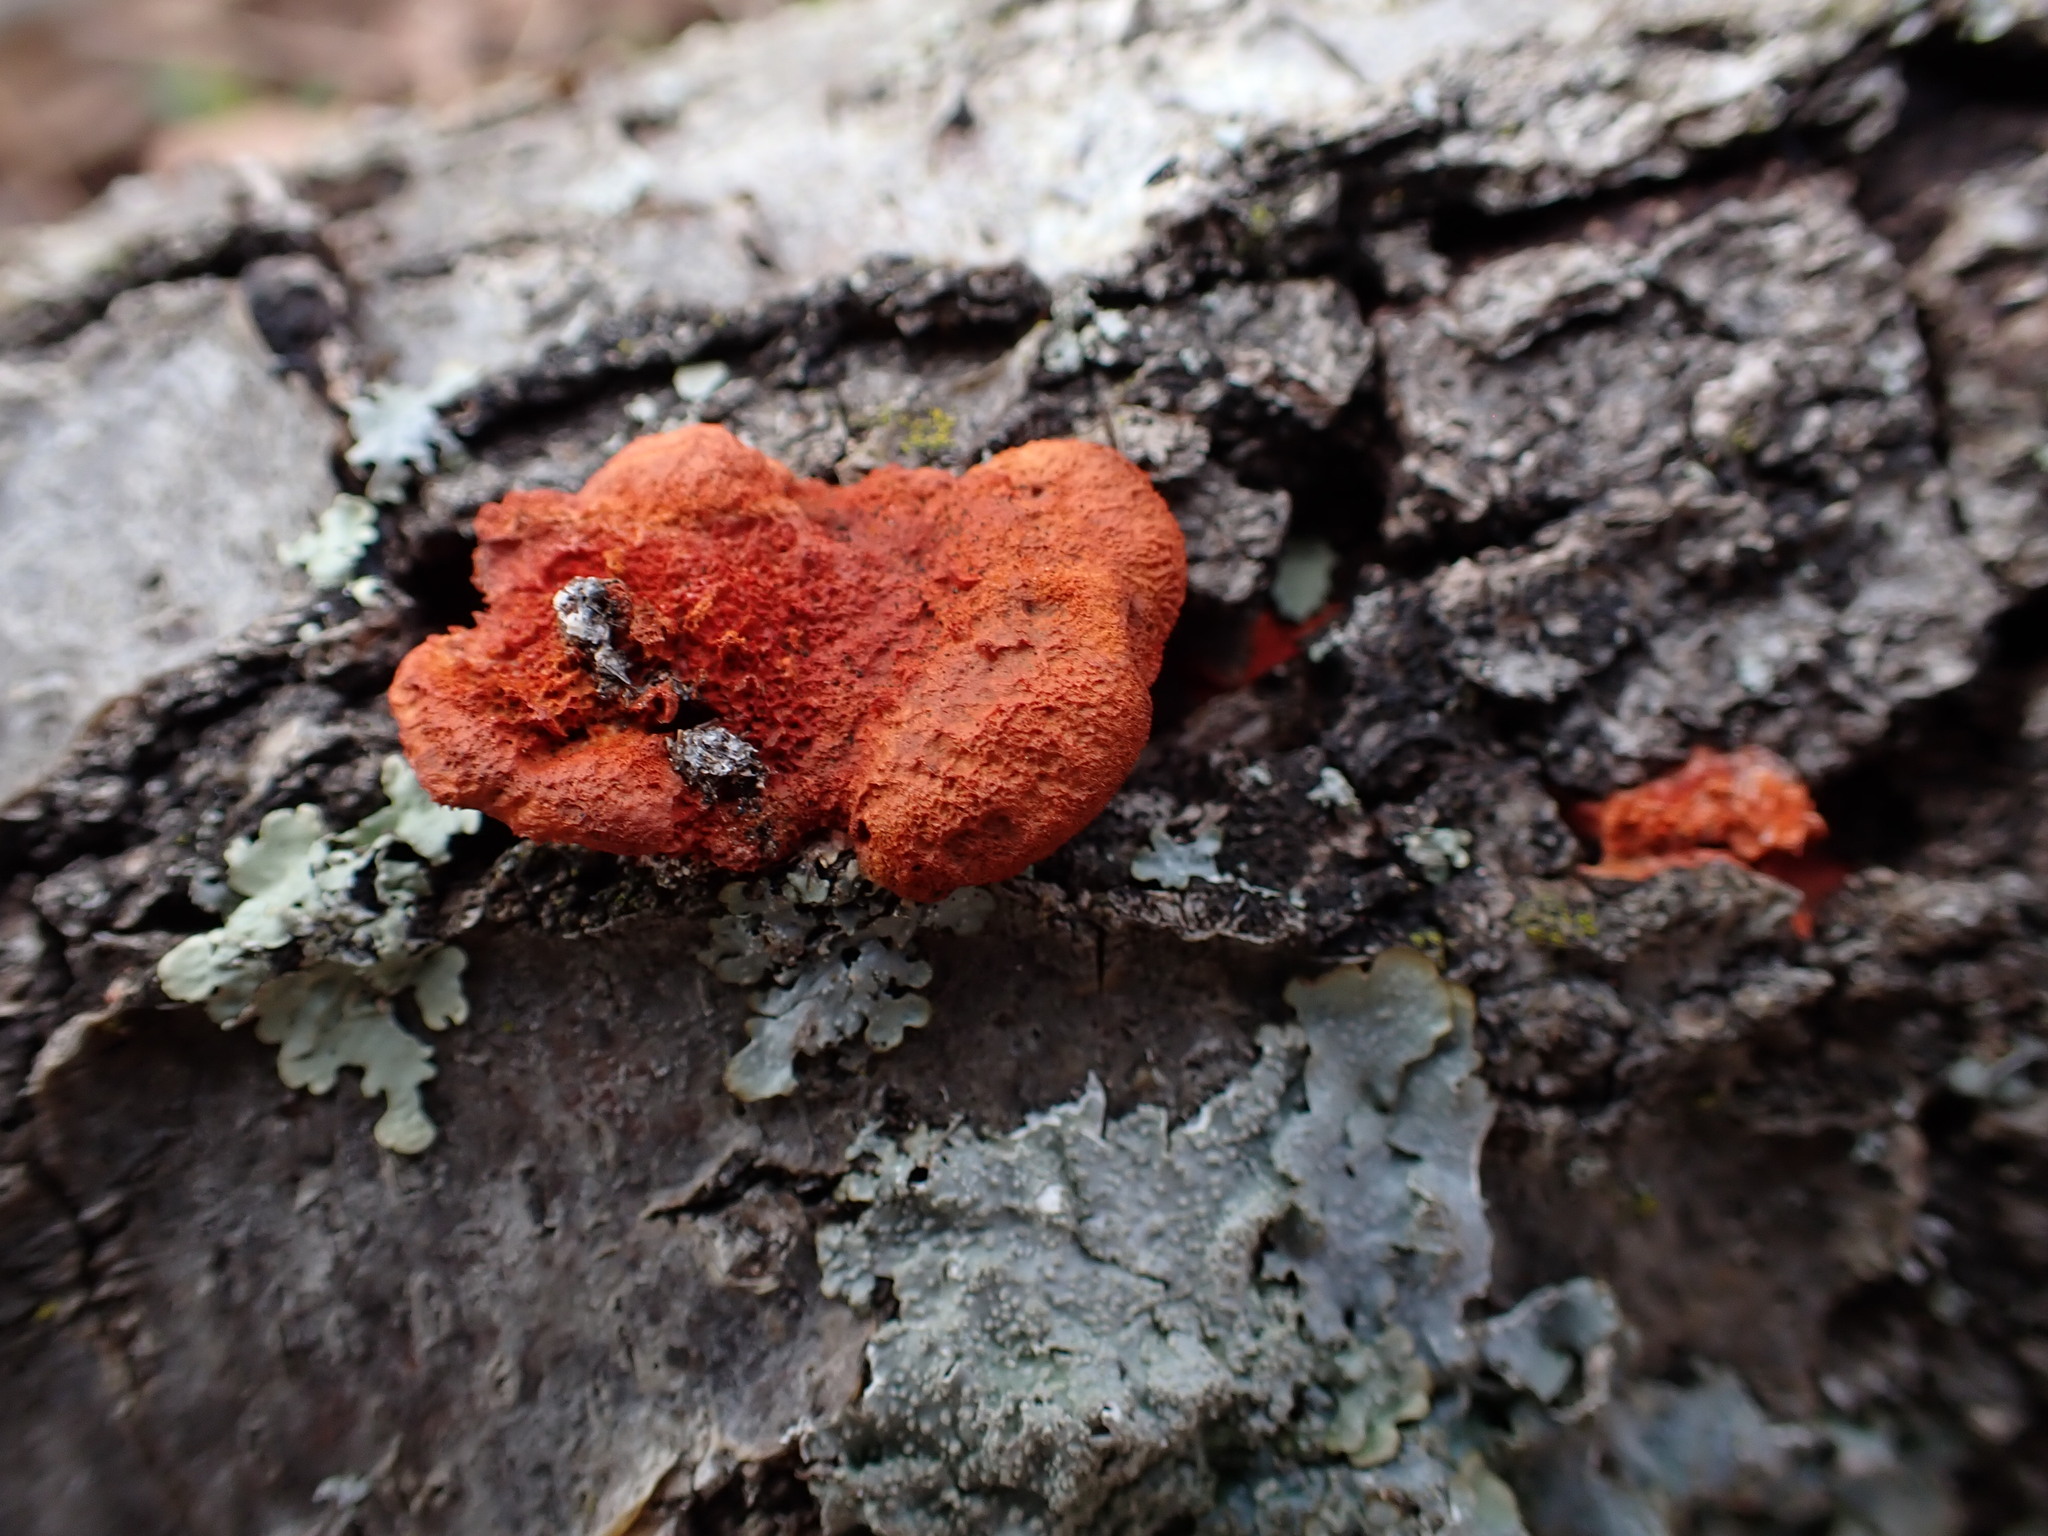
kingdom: Fungi
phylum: Basidiomycota
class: Agaricomycetes
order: Polyporales
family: Polyporaceae
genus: Trametes
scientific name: Trametes cinnabarina
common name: Northern cinnabar polypore
